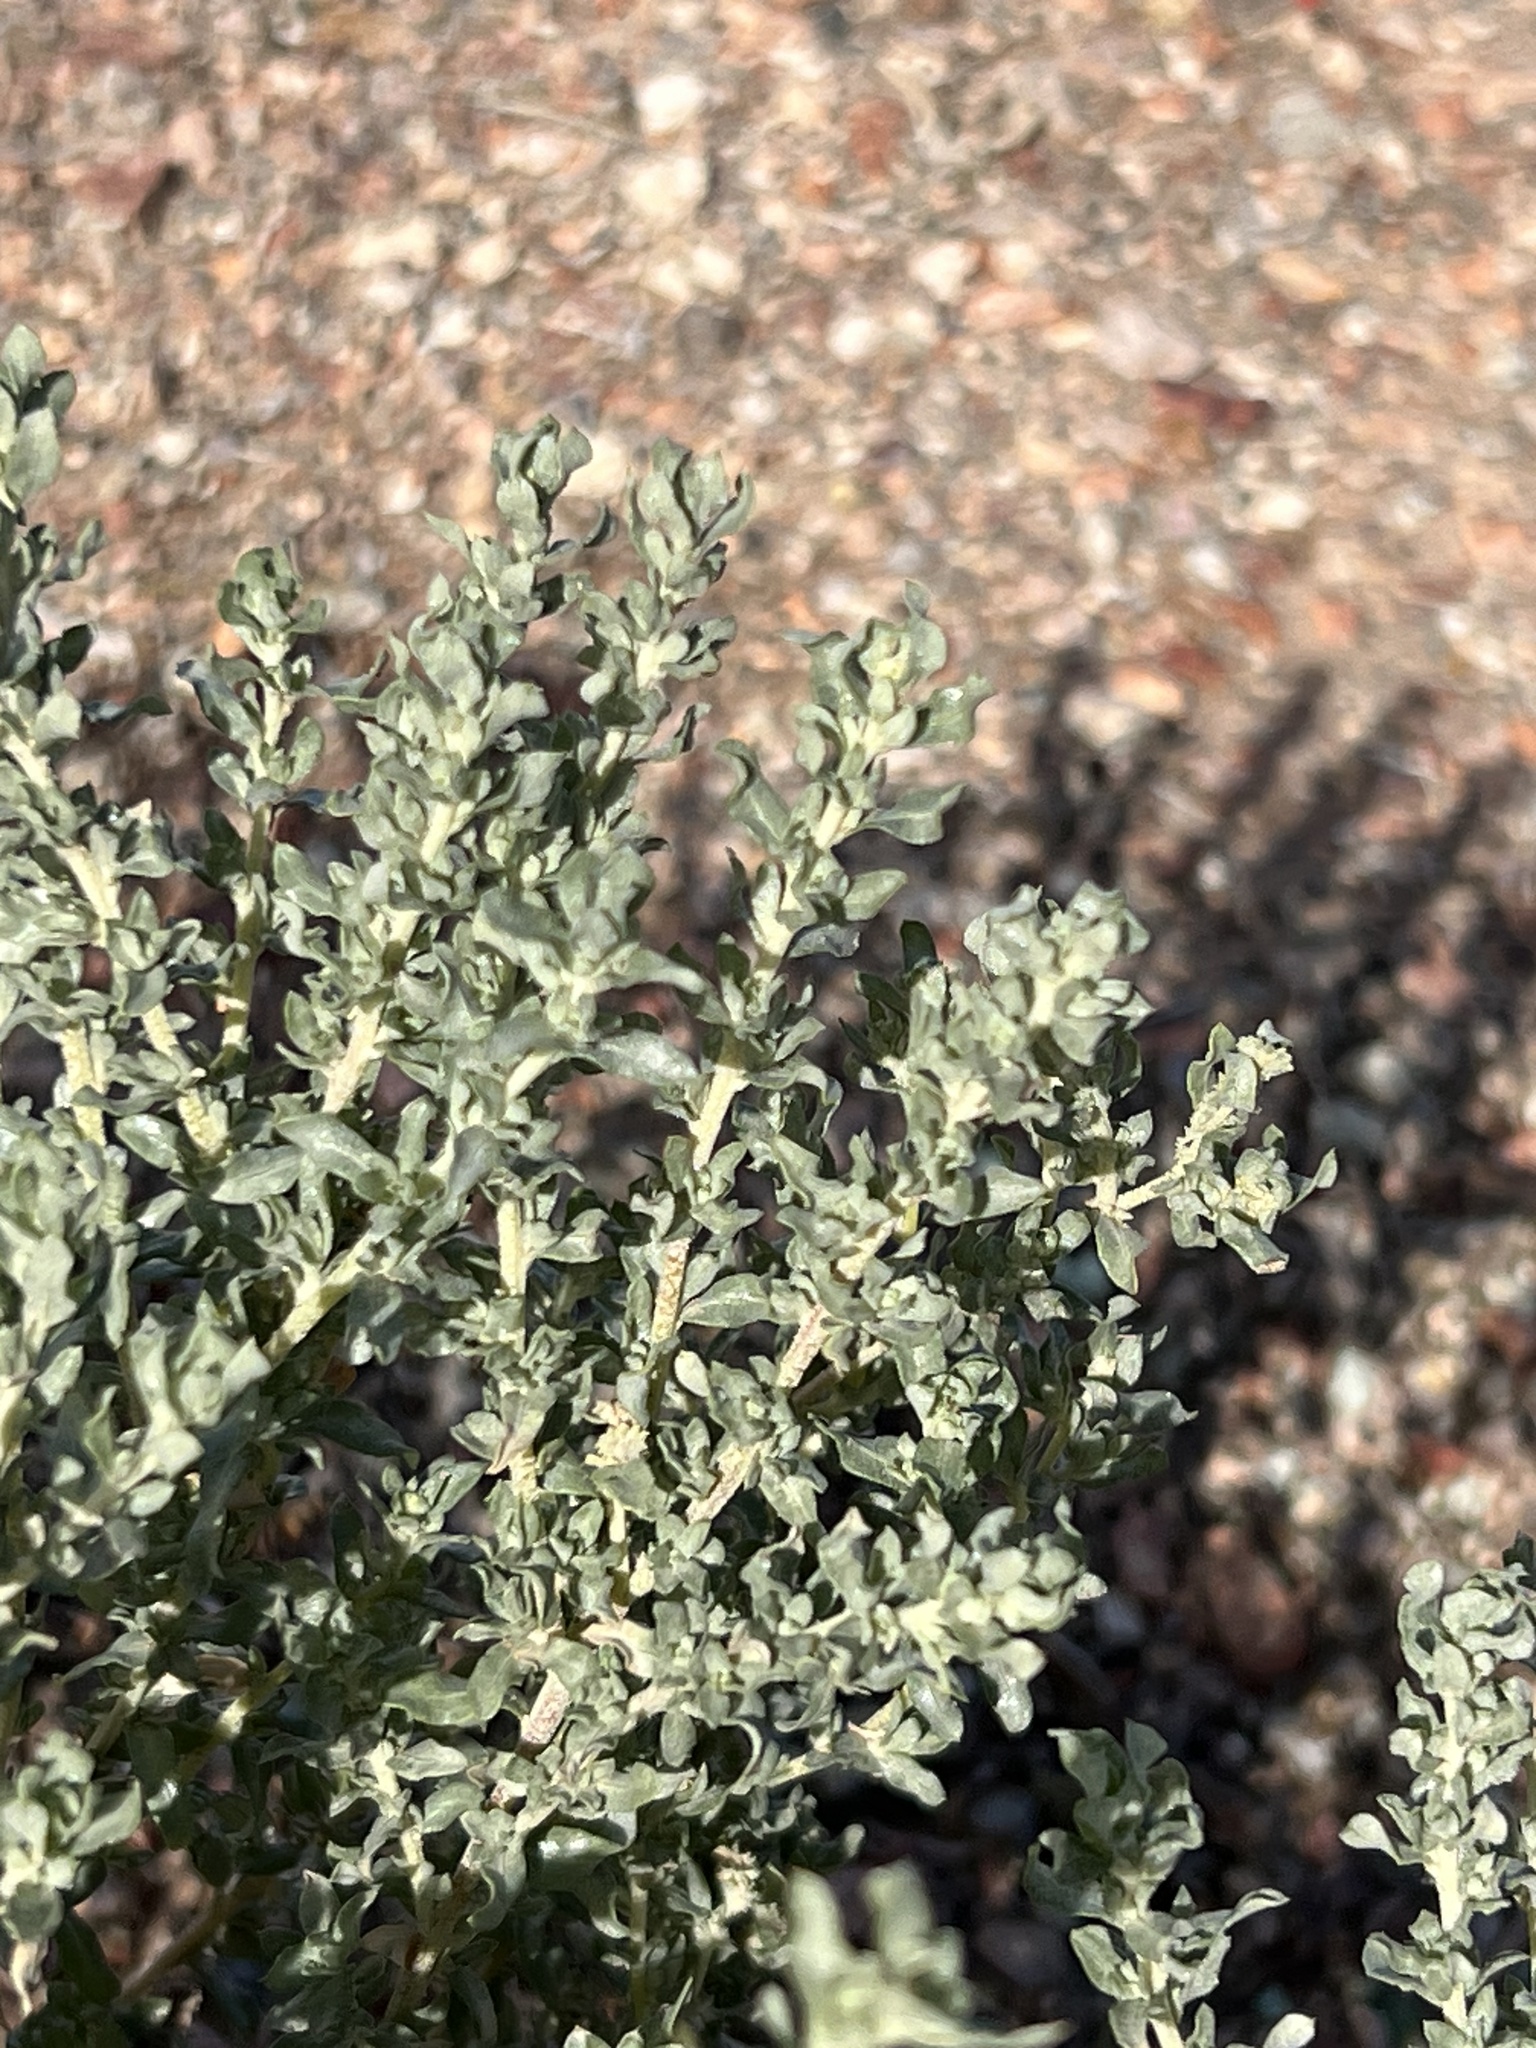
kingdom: Plantae
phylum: Tracheophyta
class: Magnoliopsida
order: Caryophyllales
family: Amaranthaceae
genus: Atriplex
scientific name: Atriplex elegans
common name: Wheelscale orach
